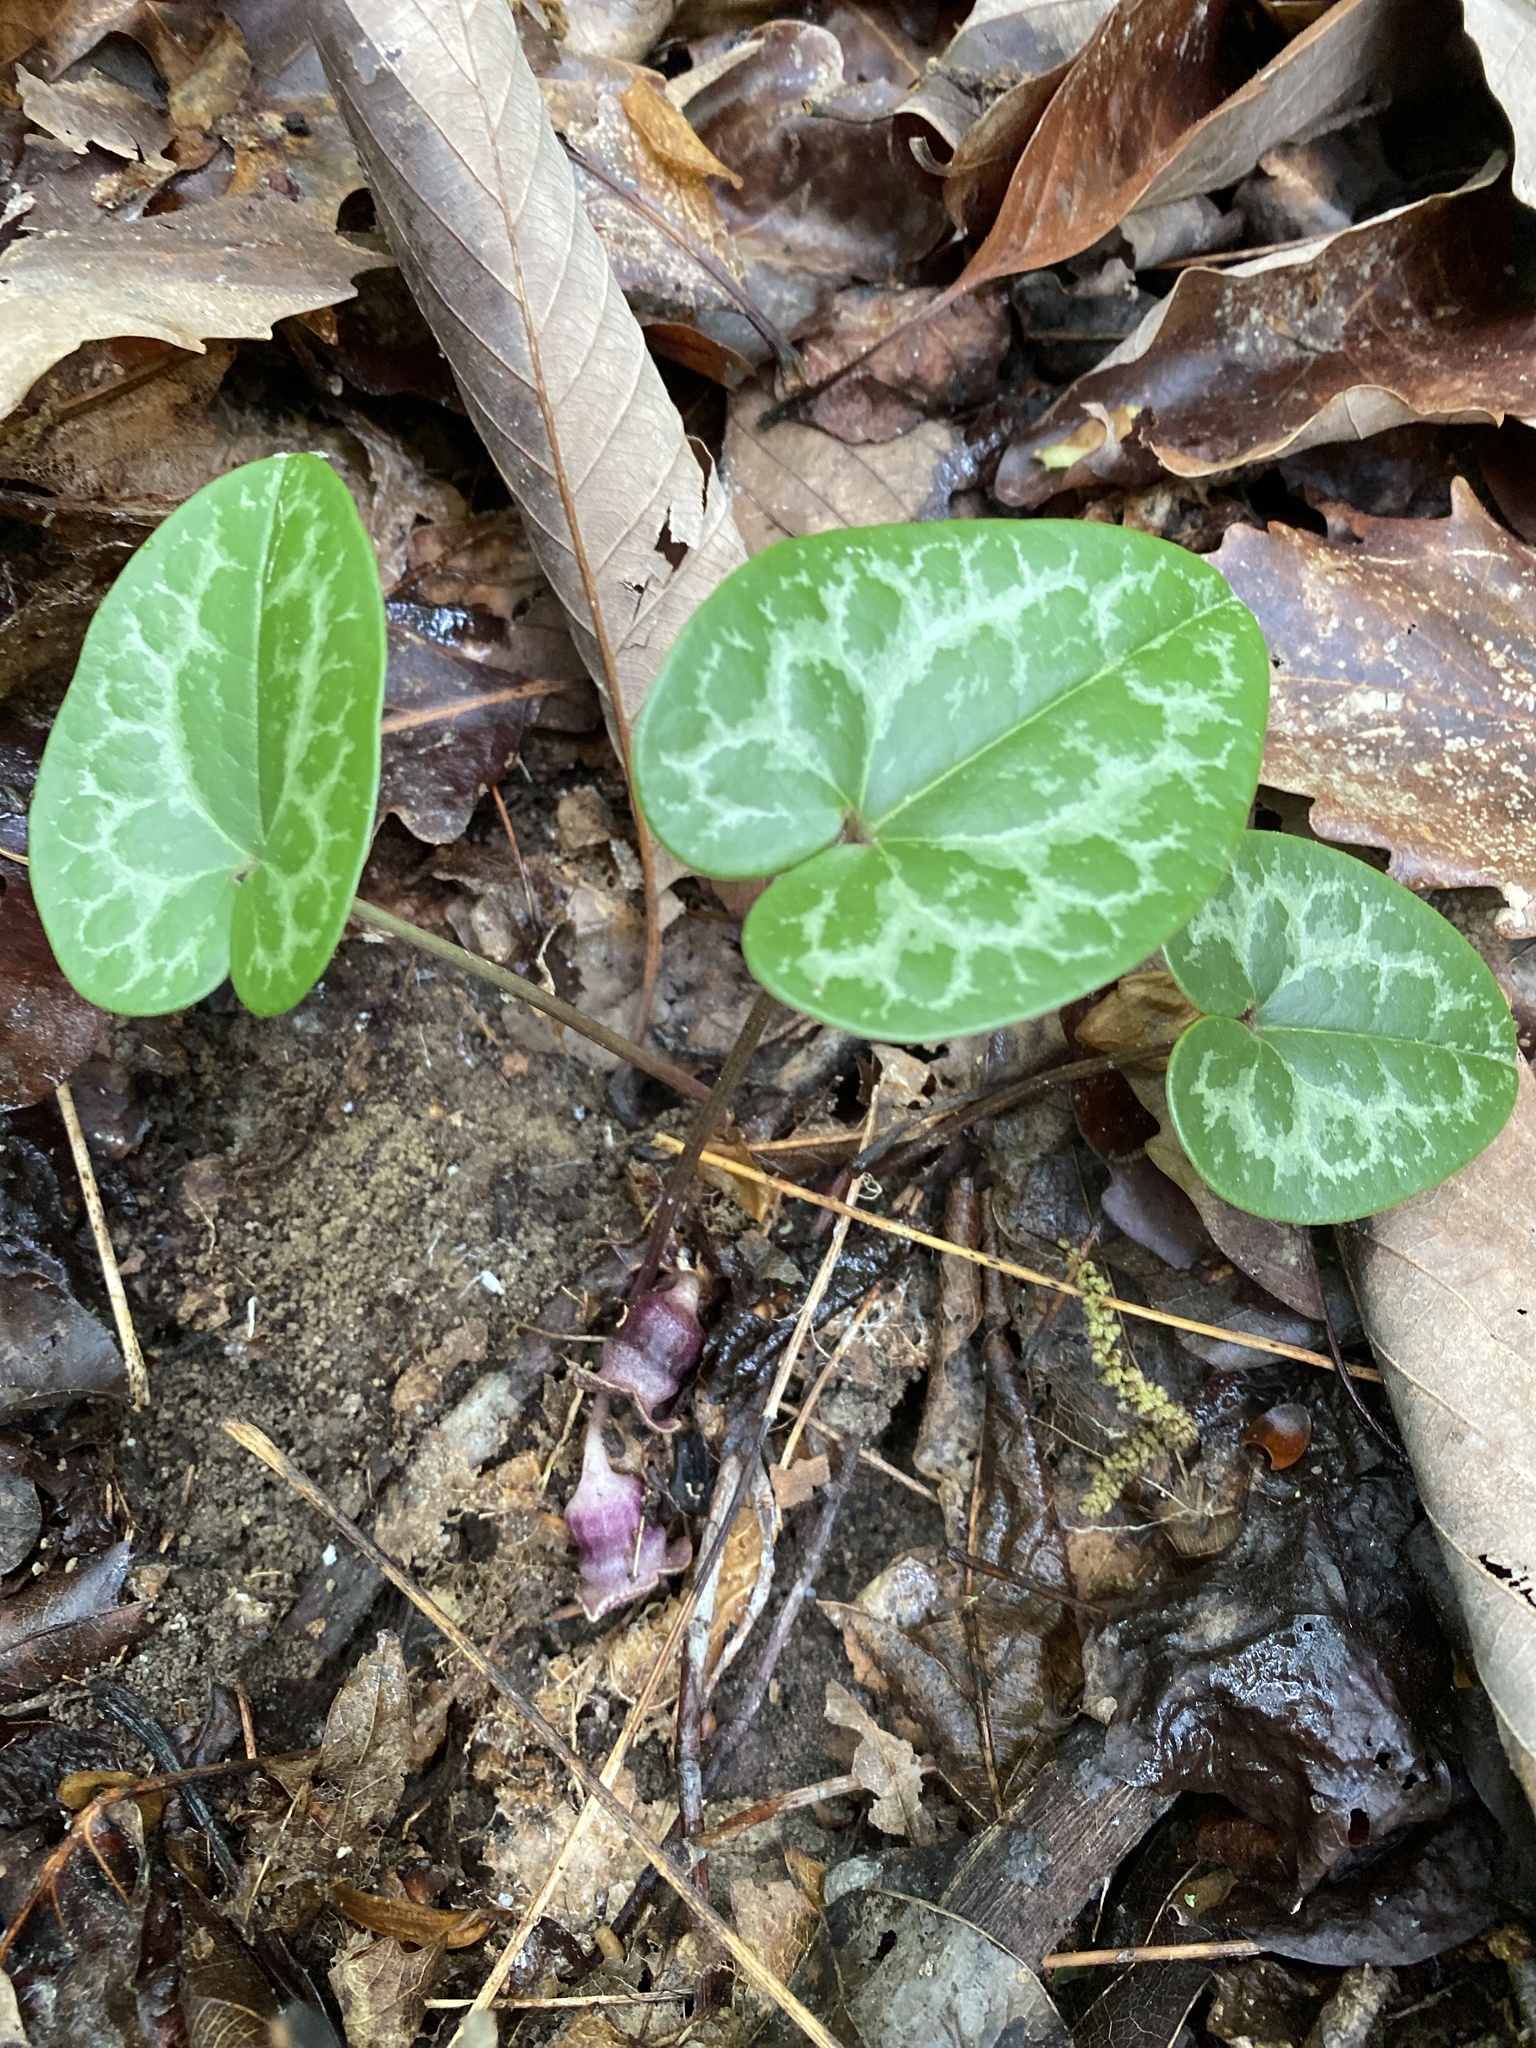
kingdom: Plantae
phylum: Tracheophyta
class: Magnoliopsida
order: Piperales
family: Aristolochiaceae
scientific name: Aristolochiaceae
